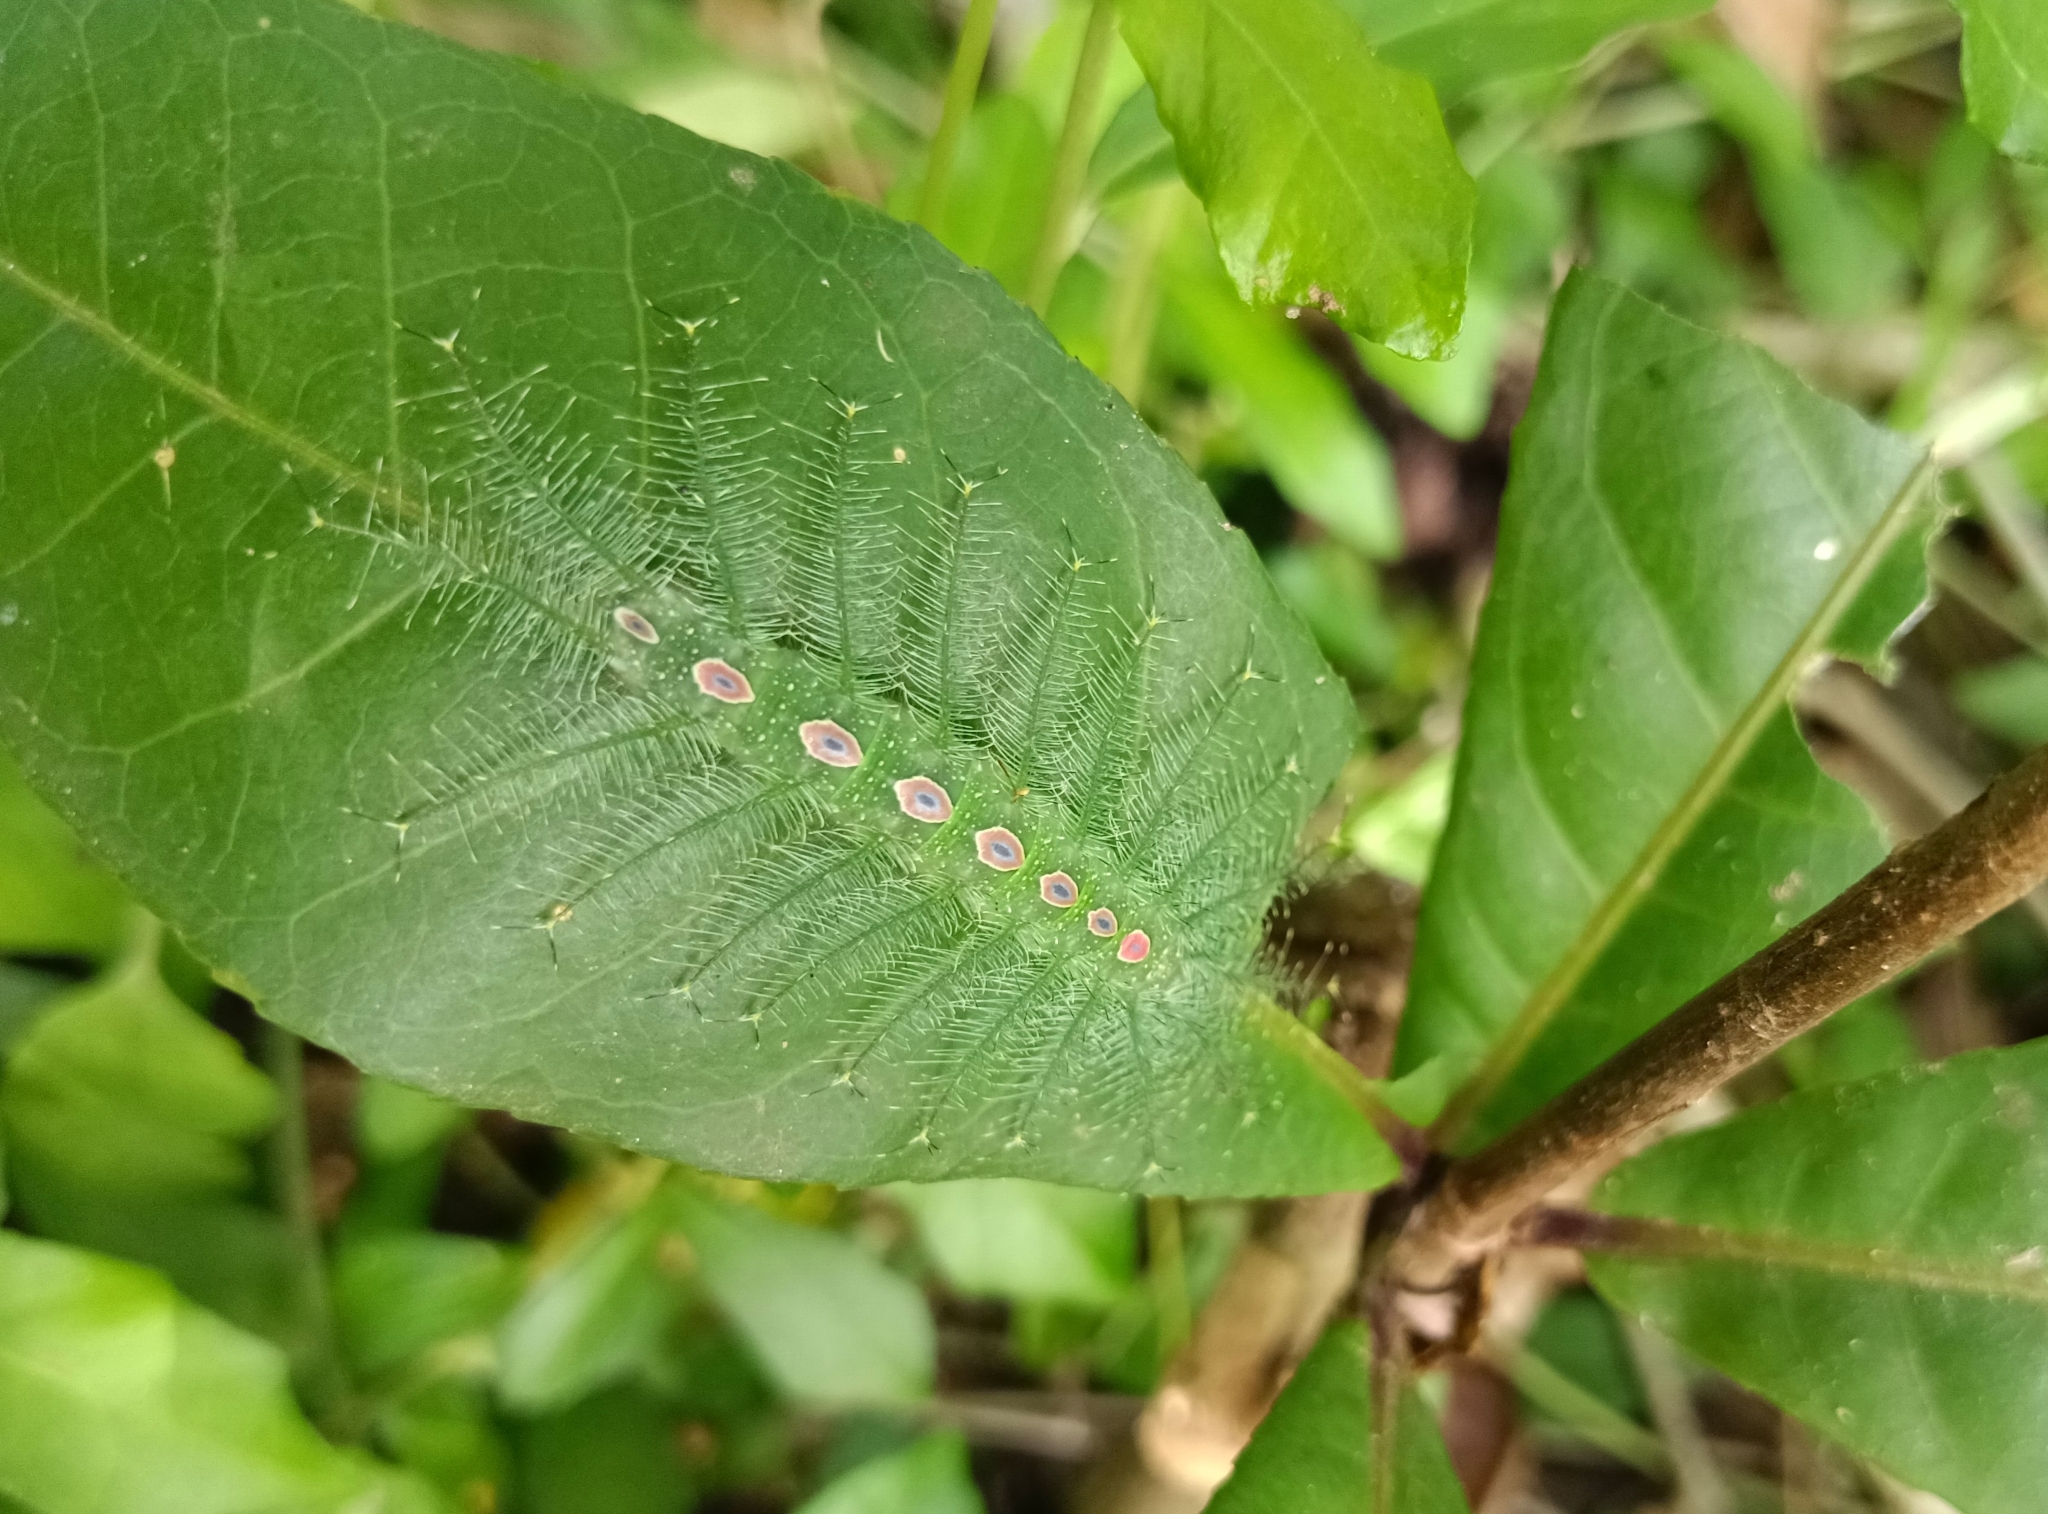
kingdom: Animalia
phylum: Arthropoda
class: Insecta
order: Lepidoptera
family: Nymphalidae
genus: Tanaecia
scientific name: Tanaecia lepidea
